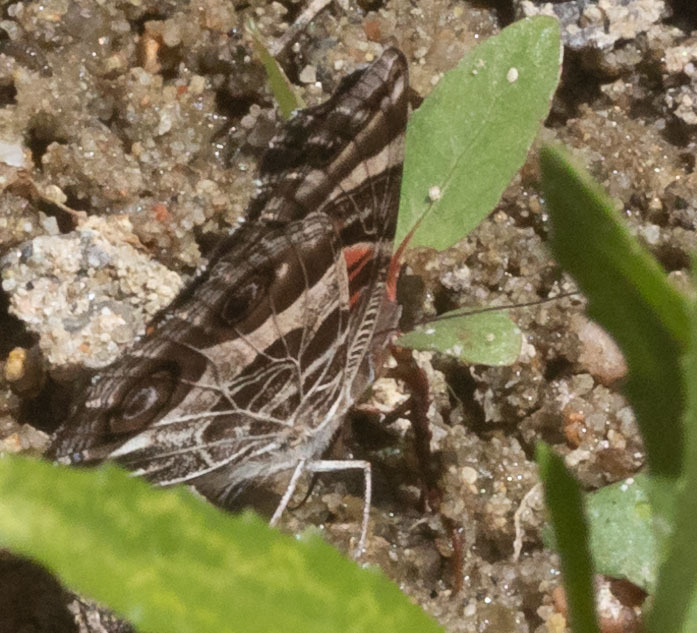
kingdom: Animalia
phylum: Arthropoda
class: Insecta
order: Lepidoptera
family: Nymphalidae
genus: Vanessa
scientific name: Vanessa virginiensis
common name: American lady
